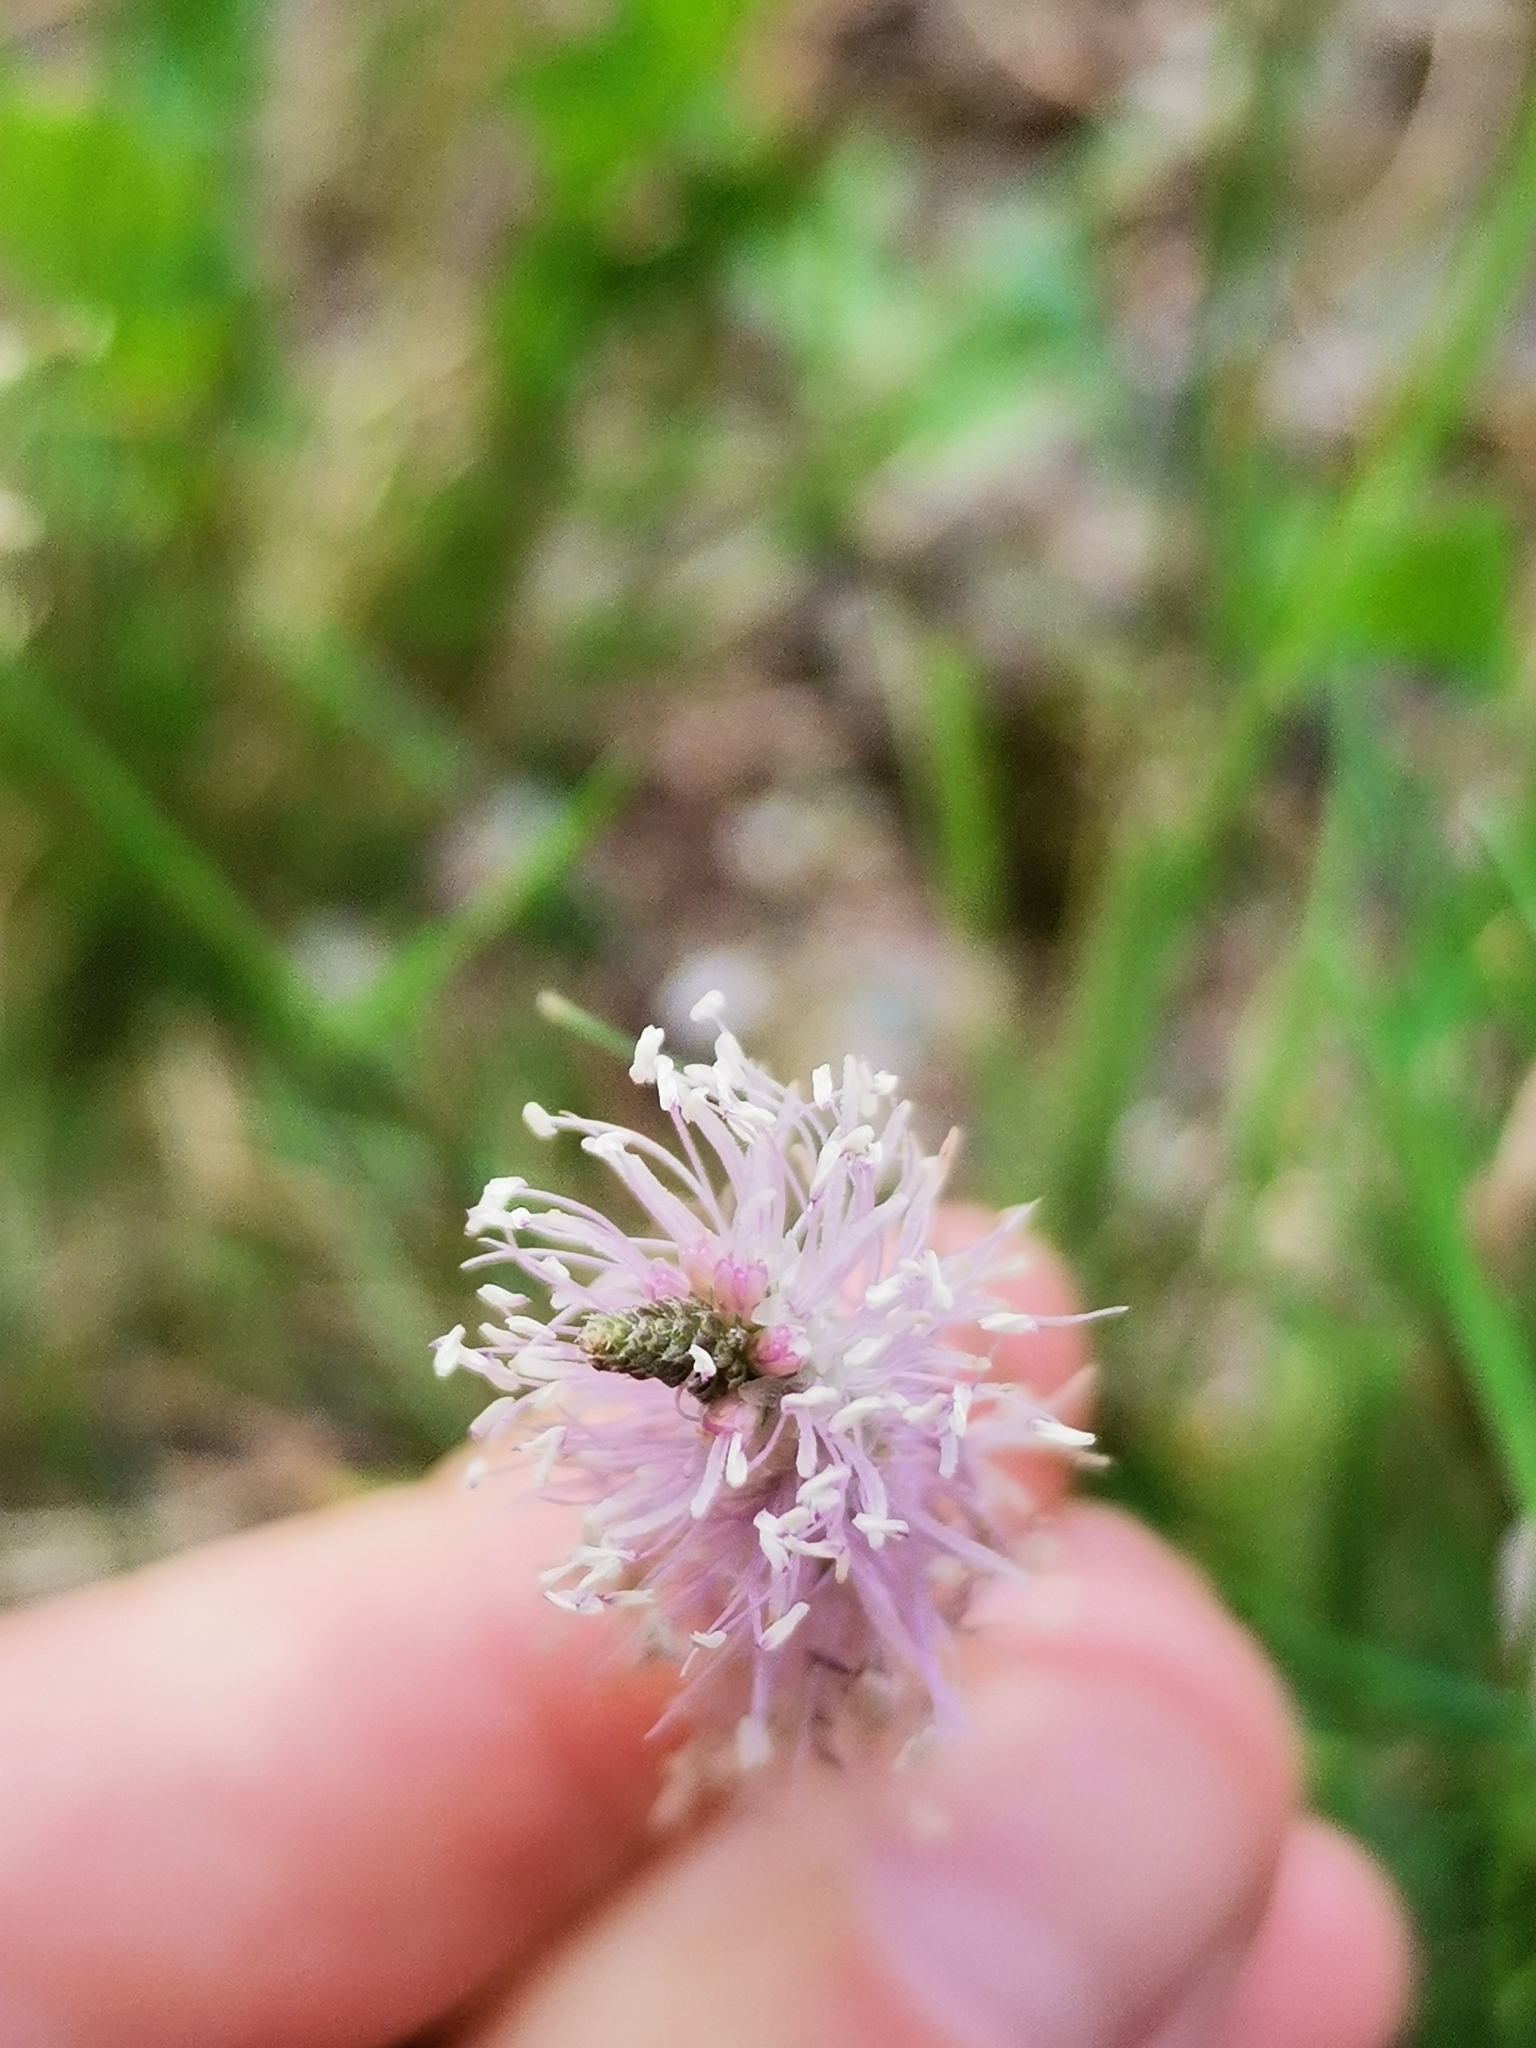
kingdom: Plantae
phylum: Tracheophyta
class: Magnoliopsida
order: Lamiales
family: Plantaginaceae
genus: Plantago
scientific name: Plantago media
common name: Hoary plantain
